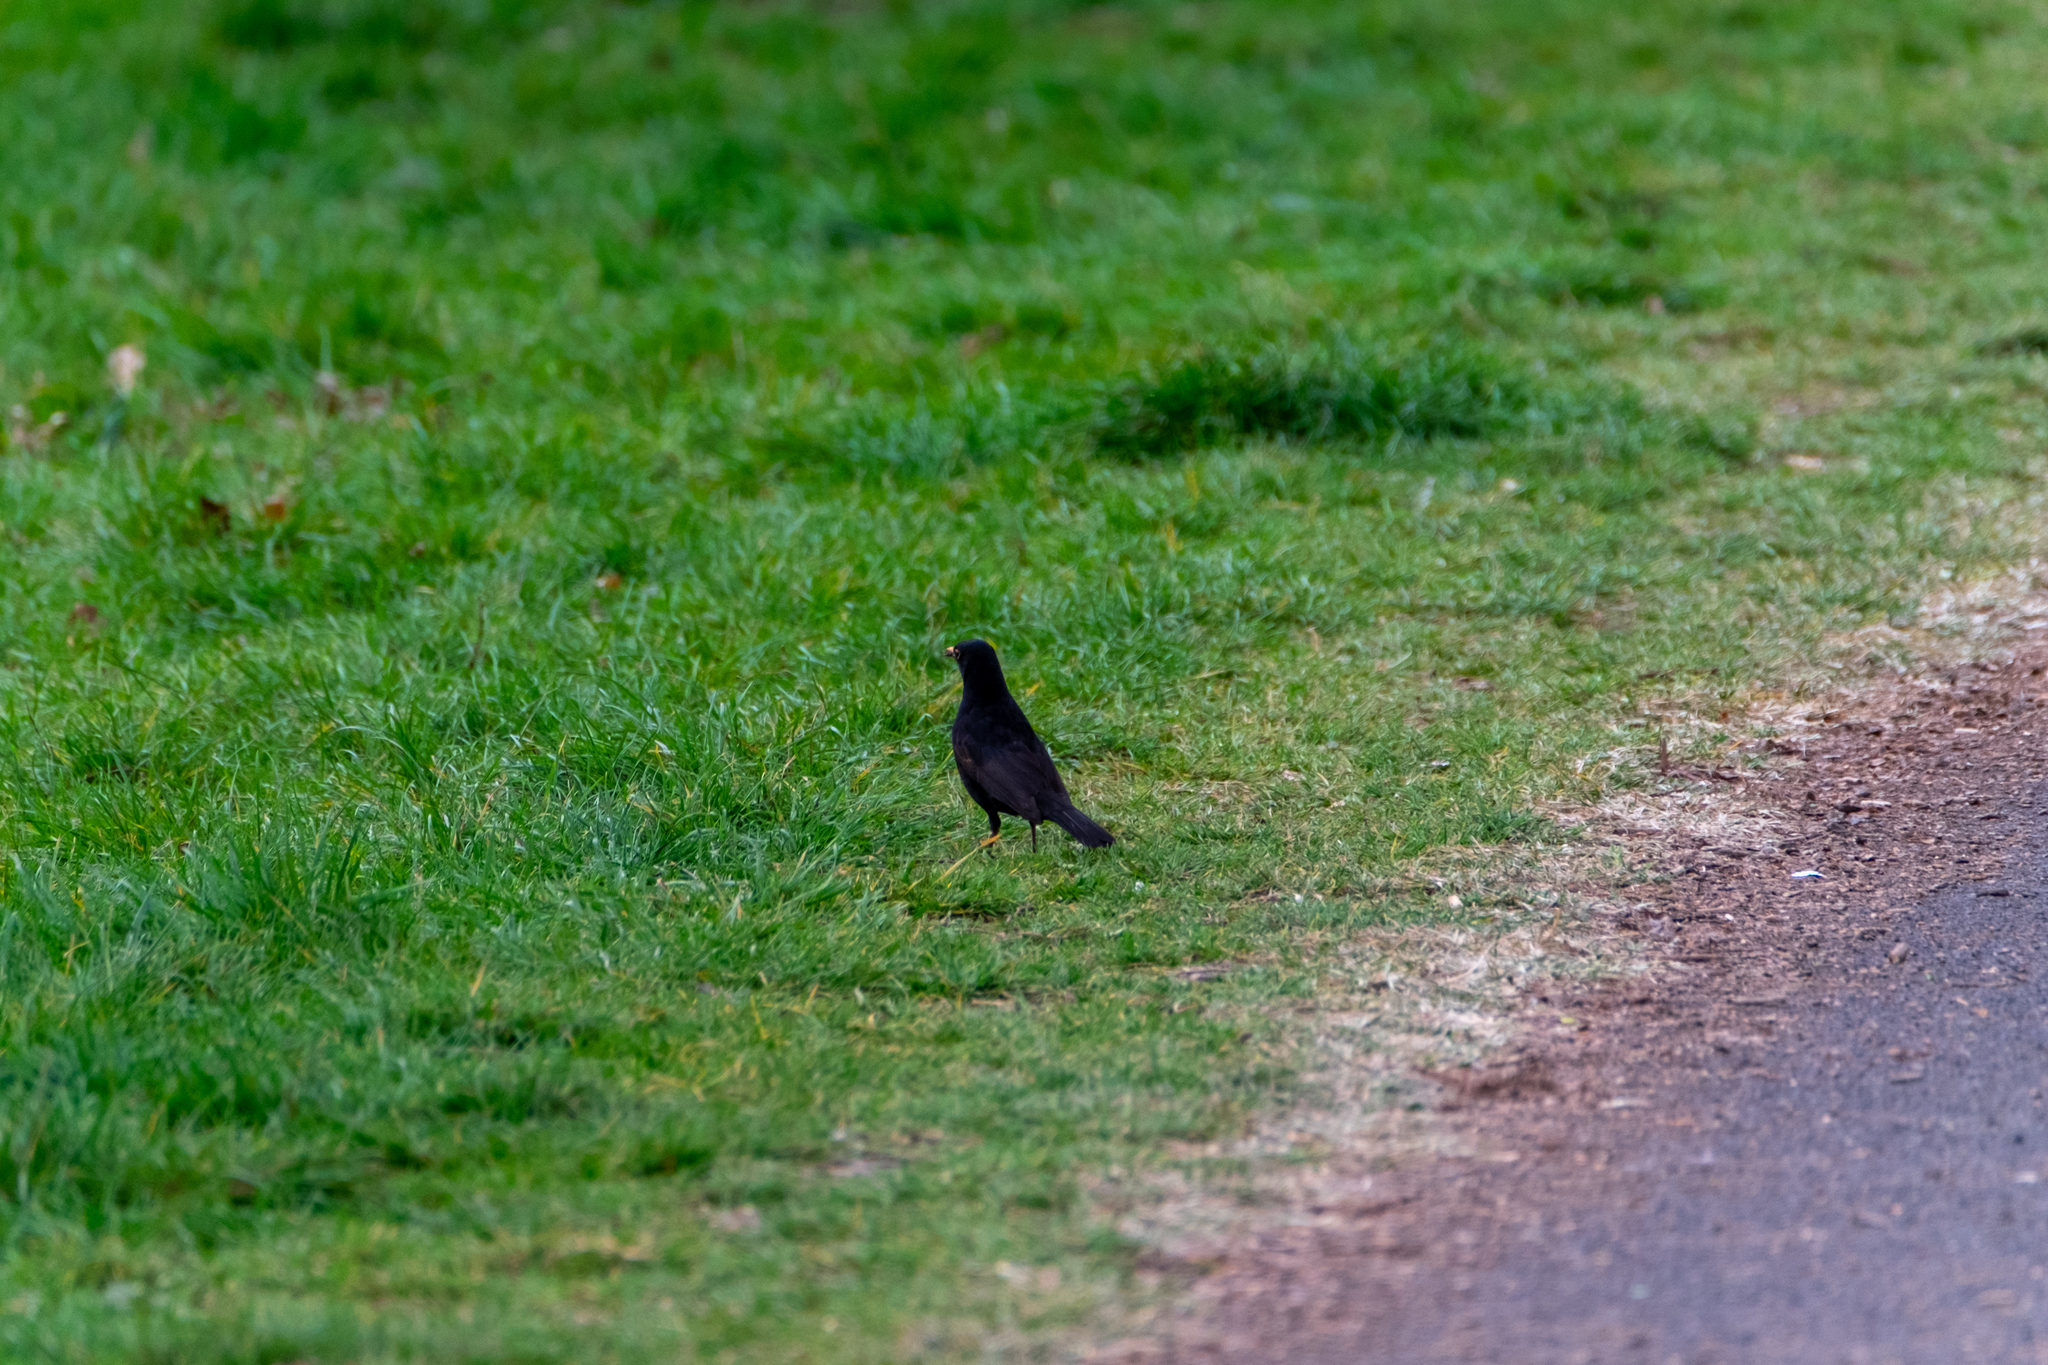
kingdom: Animalia
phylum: Chordata
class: Aves
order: Passeriformes
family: Turdidae
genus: Turdus
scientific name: Turdus merula
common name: Common blackbird
